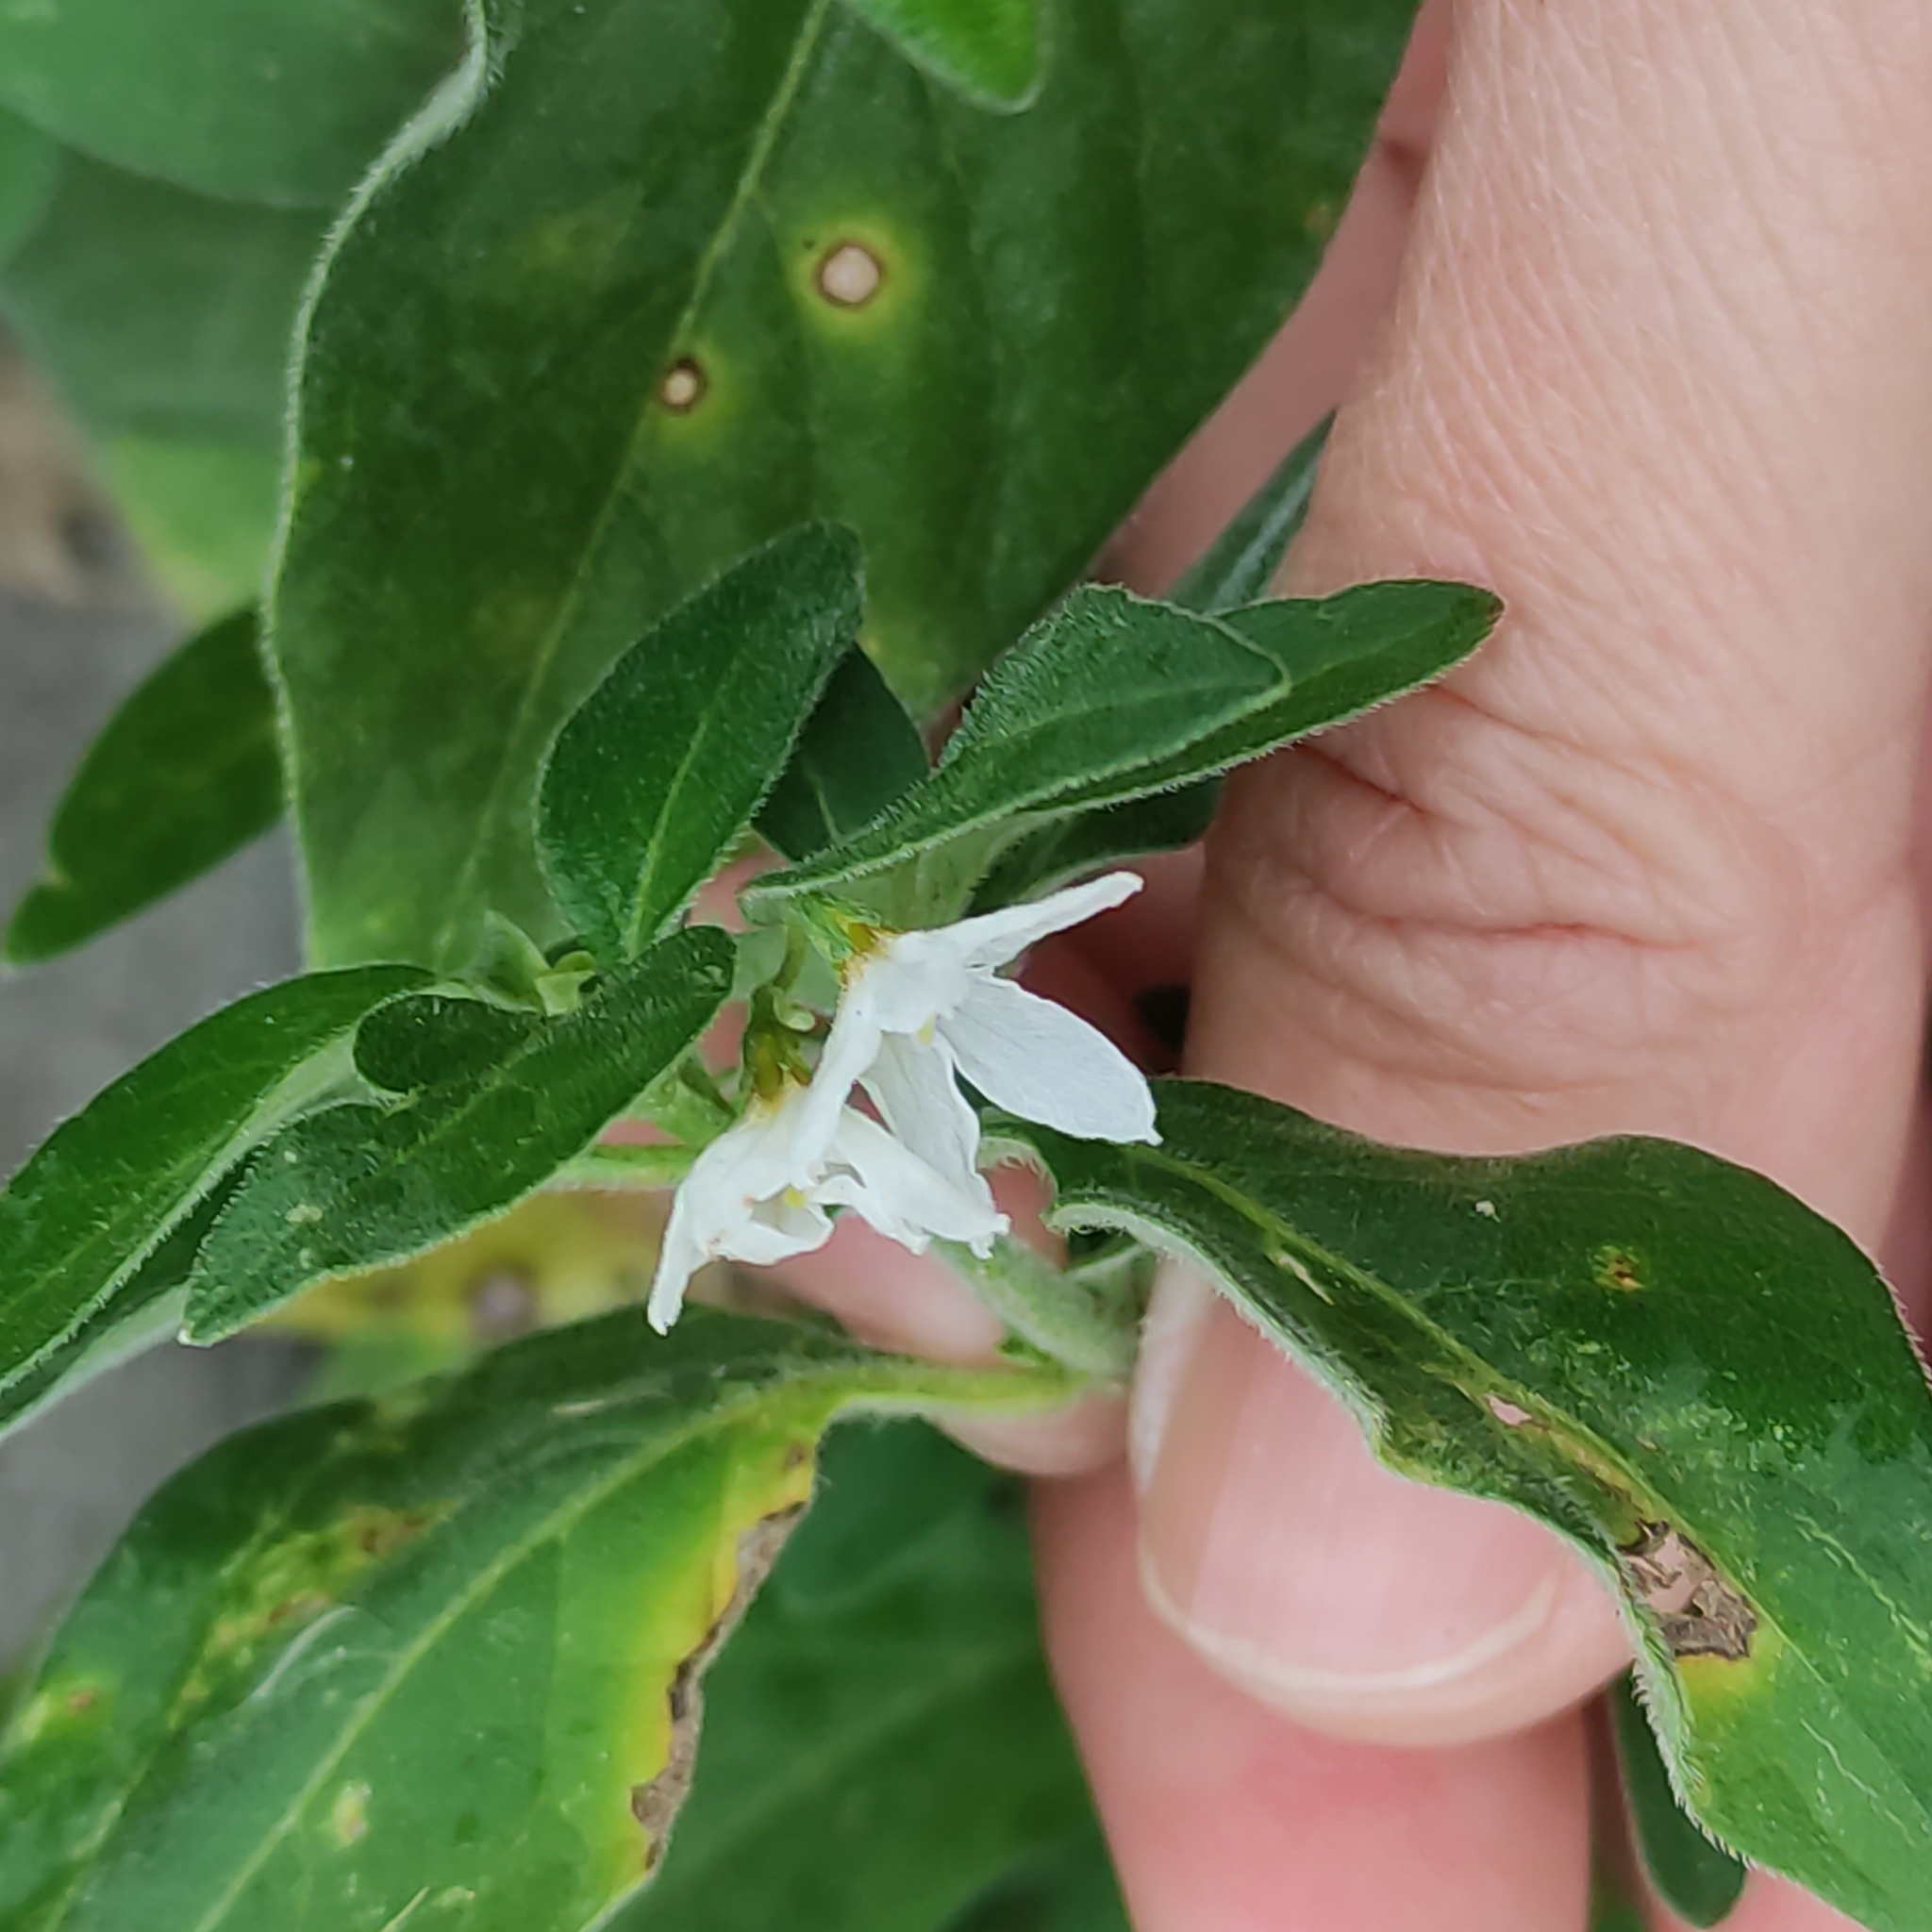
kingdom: Plantae
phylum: Tracheophyta
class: Magnoliopsida
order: Solanales
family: Solanaceae
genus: Solanum
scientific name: Solanum chenopodioides
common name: Tall nightshade
